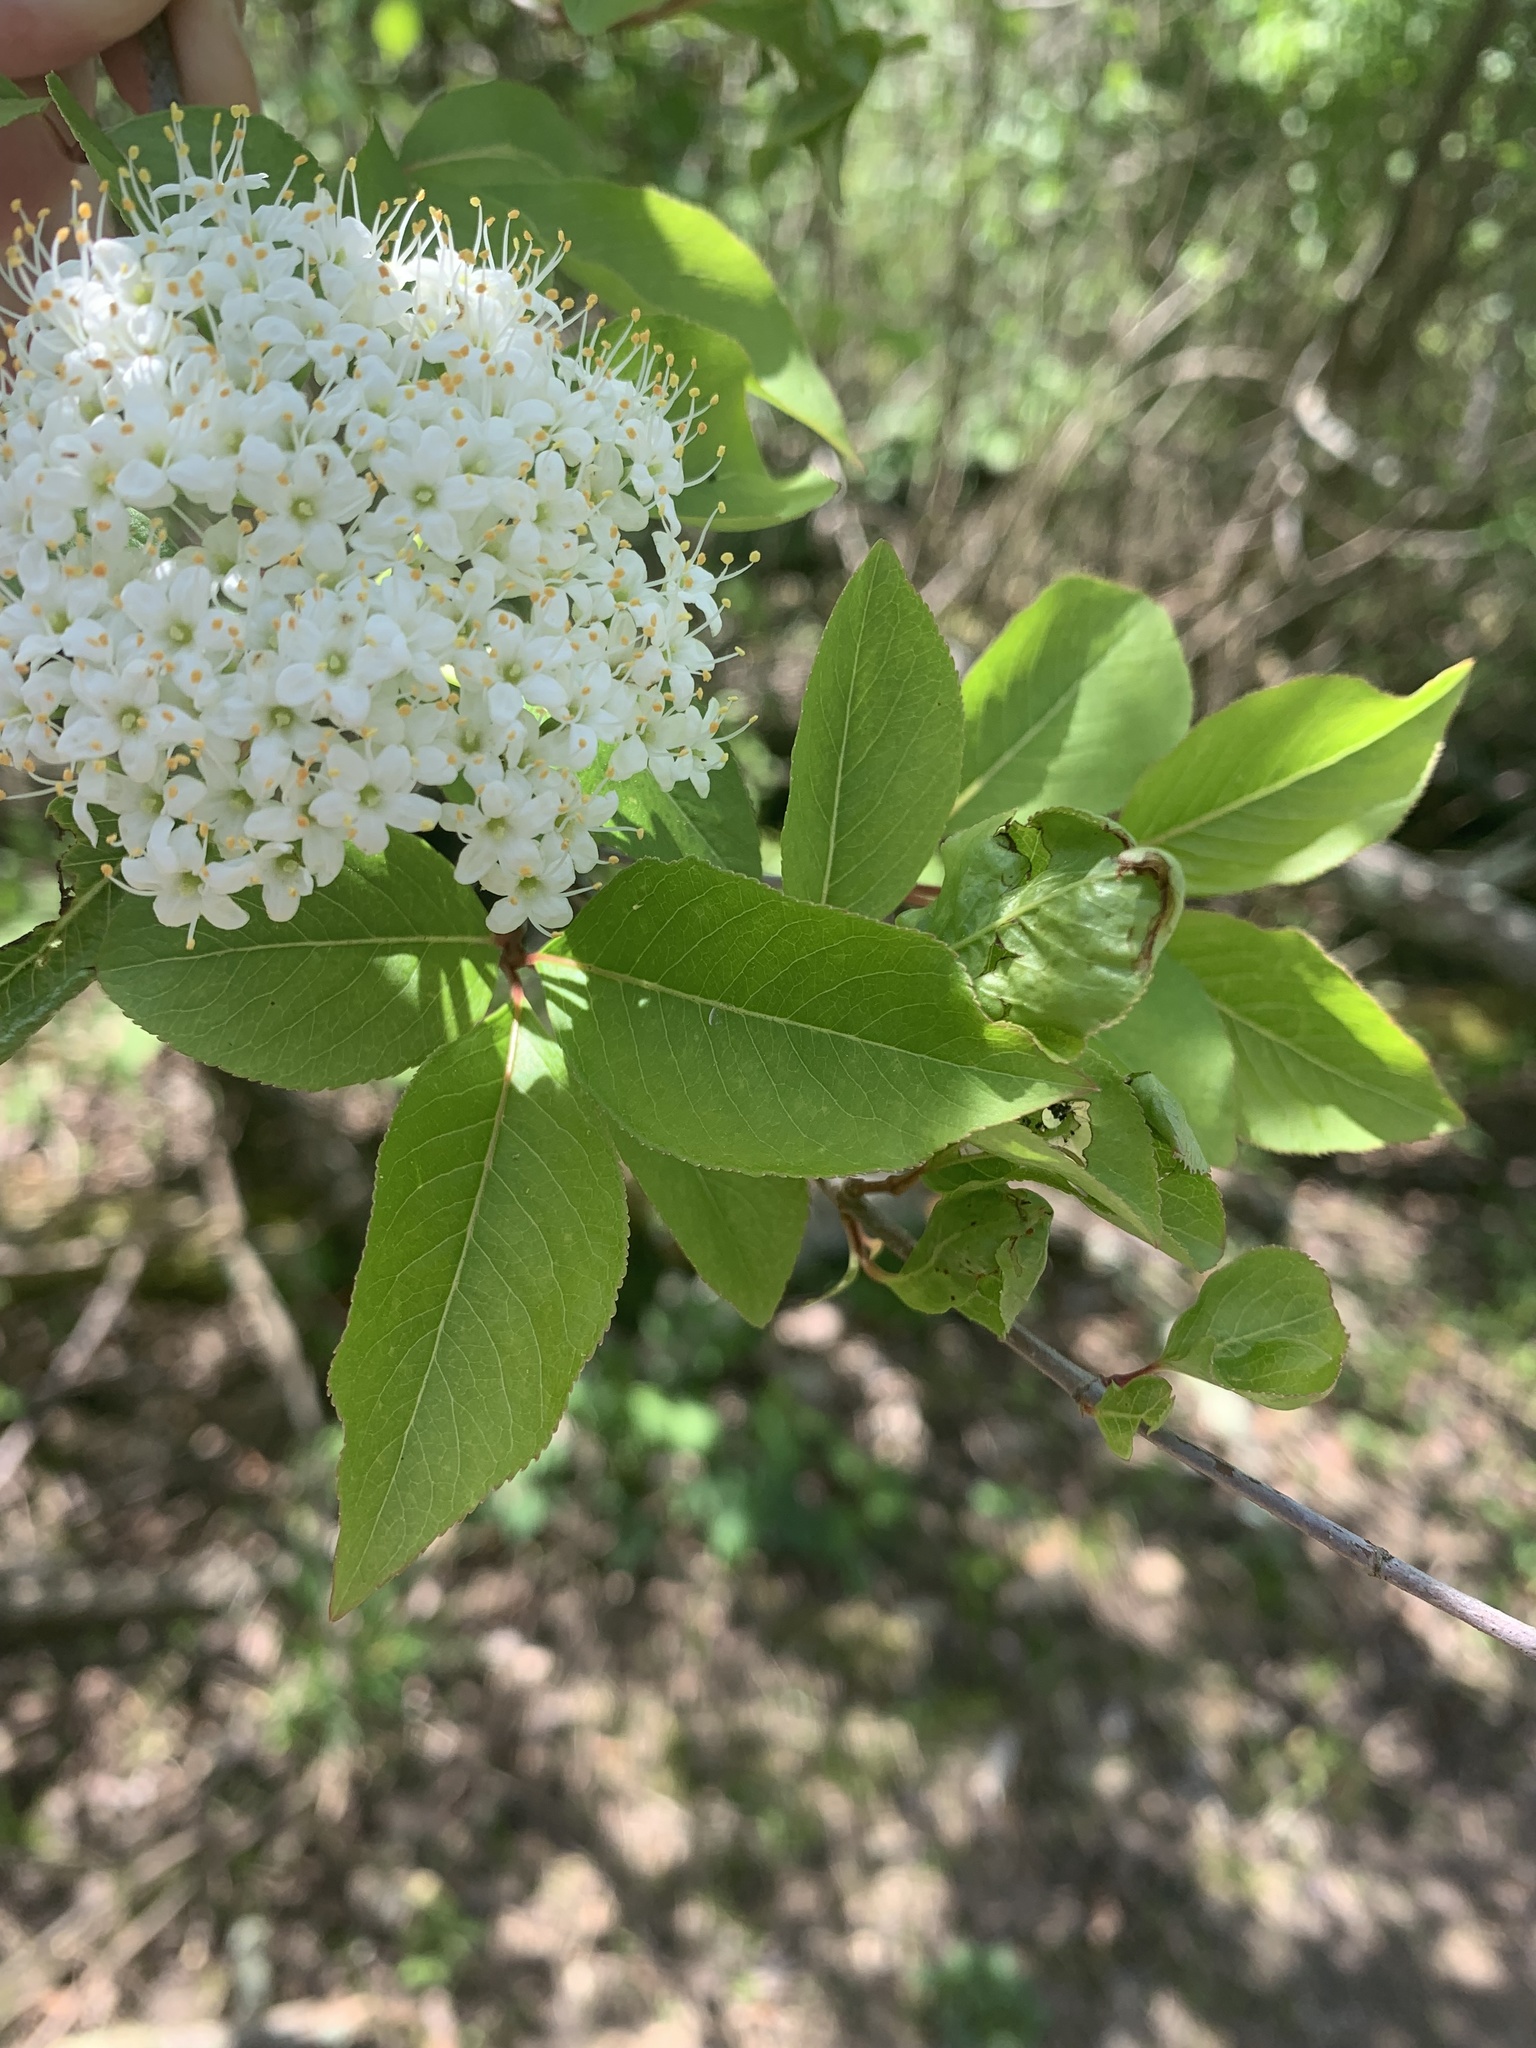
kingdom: Plantae
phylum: Tracheophyta
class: Magnoliopsida
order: Dipsacales
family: Viburnaceae
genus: Viburnum
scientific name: Viburnum prunifolium
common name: Black haw
